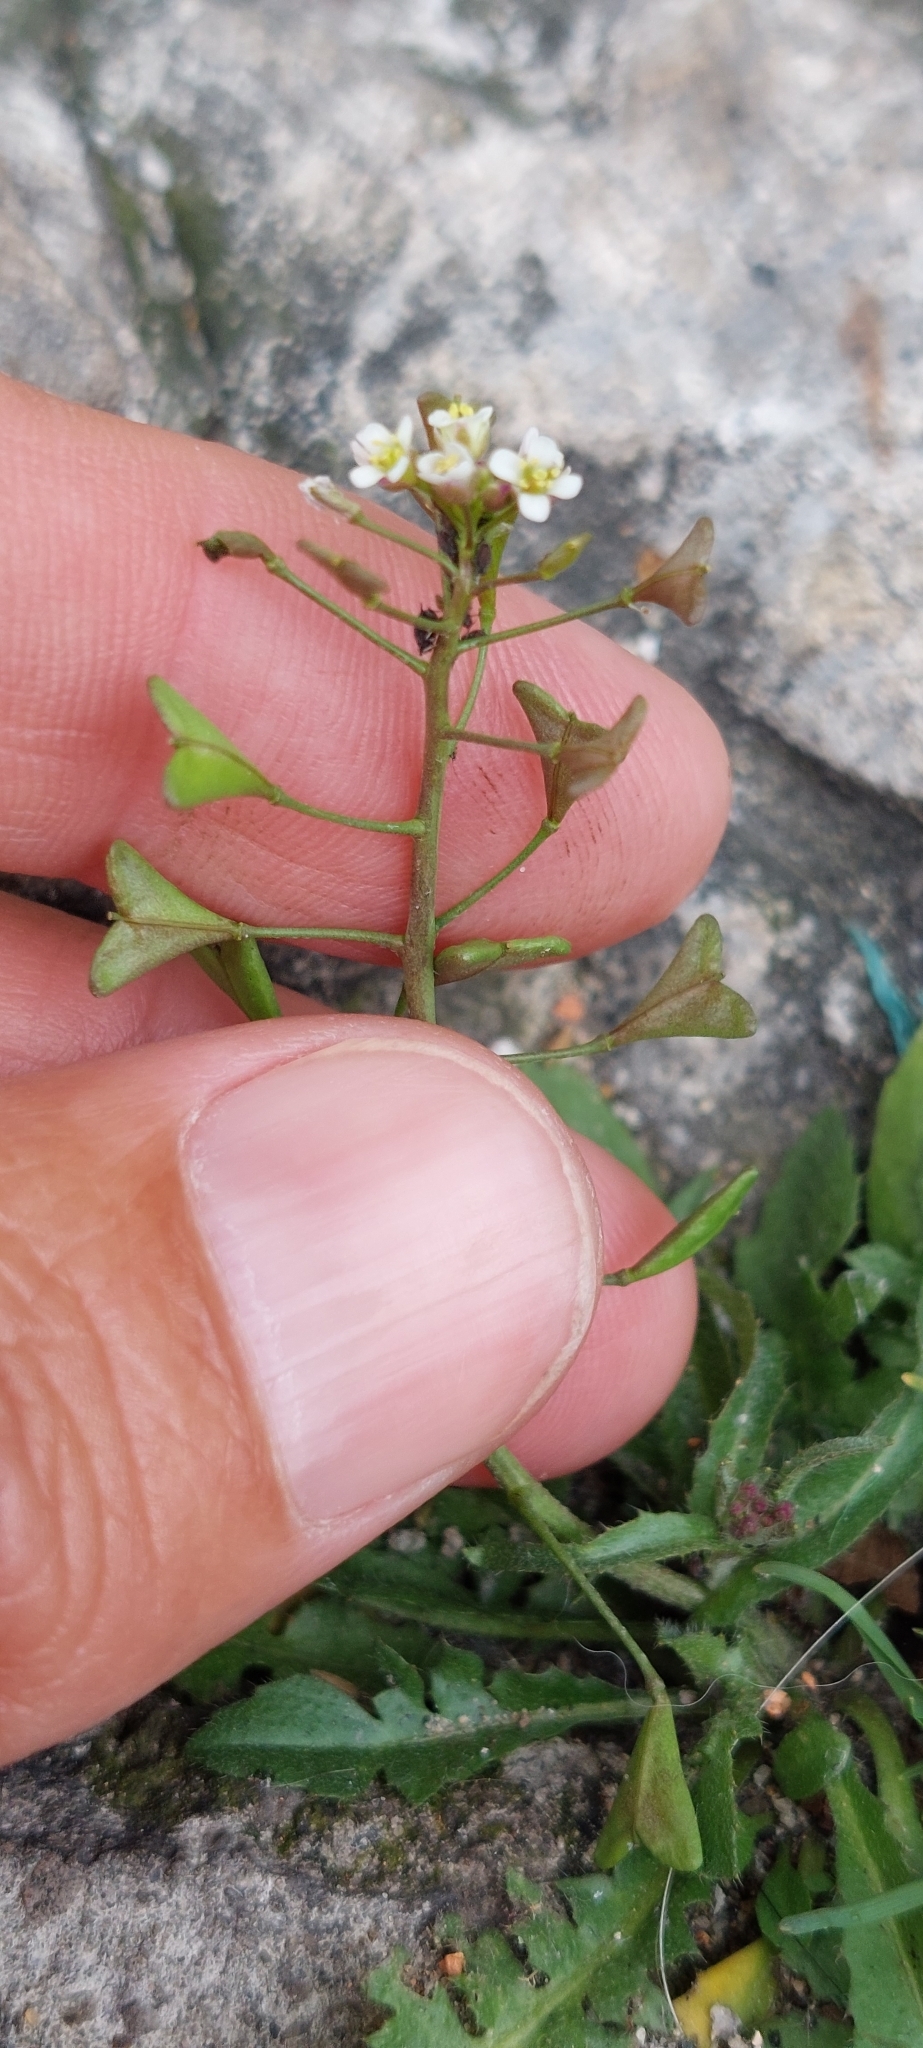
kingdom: Plantae
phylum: Tracheophyta
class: Magnoliopsida
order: Brassicales
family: Brassicaceae
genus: Capsella
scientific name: Capsella bursa-pastoris
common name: Shepherd's purse
